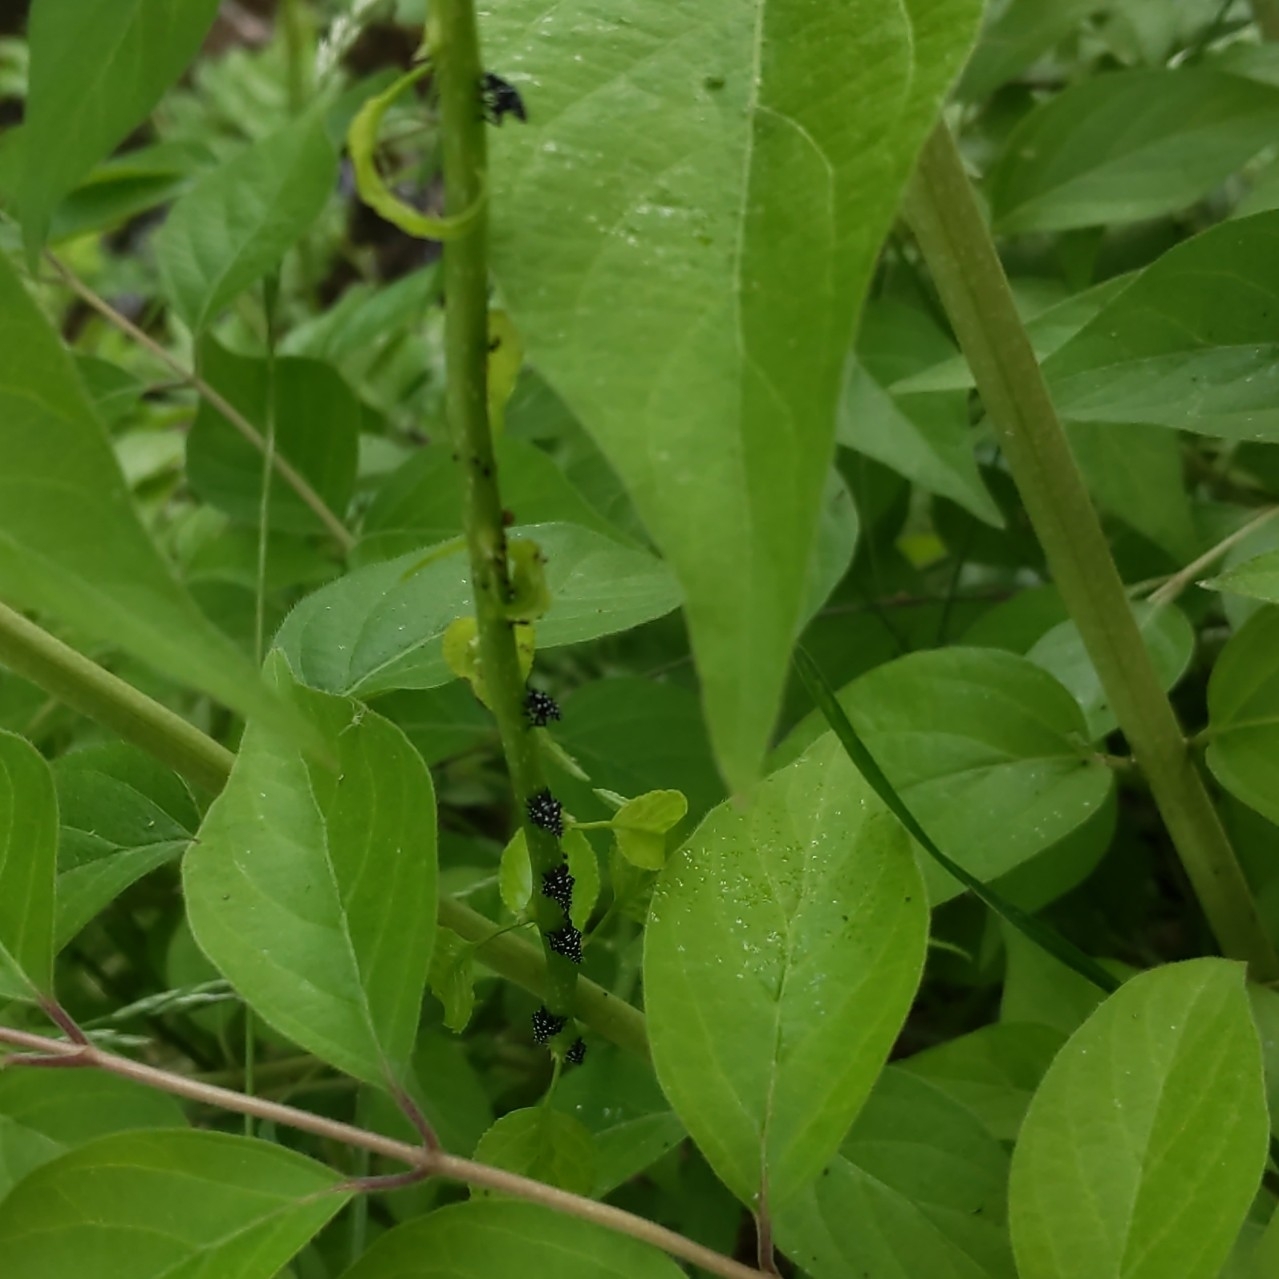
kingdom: Animalia
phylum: Arthropoda
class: Insecta
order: Hemiptera
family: Fulgoridae
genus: Lycorma
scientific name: Lycorma delicatula
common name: Spotted lanternfly
